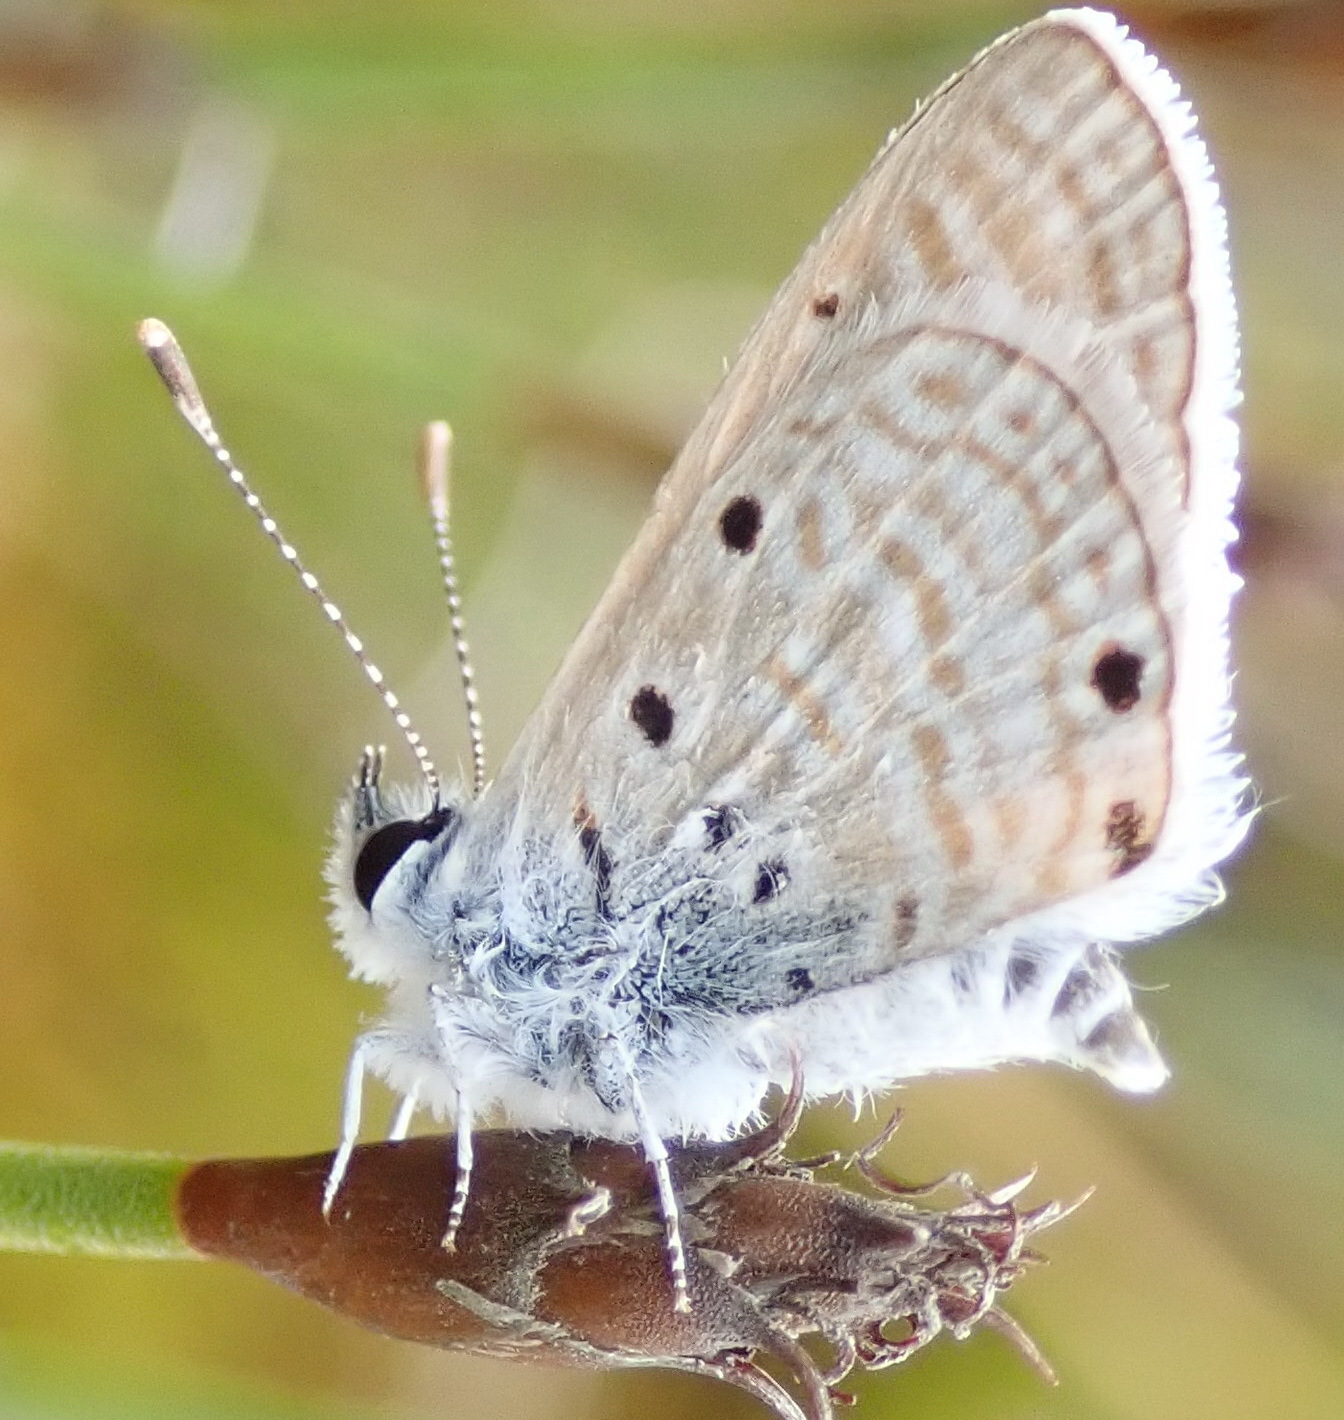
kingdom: Animalia
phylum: Arthropoda
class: Insecta
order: Lepidoptera
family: Lycaenidae
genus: Azanus
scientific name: Azanus ubaldus
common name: Desert babul blue
